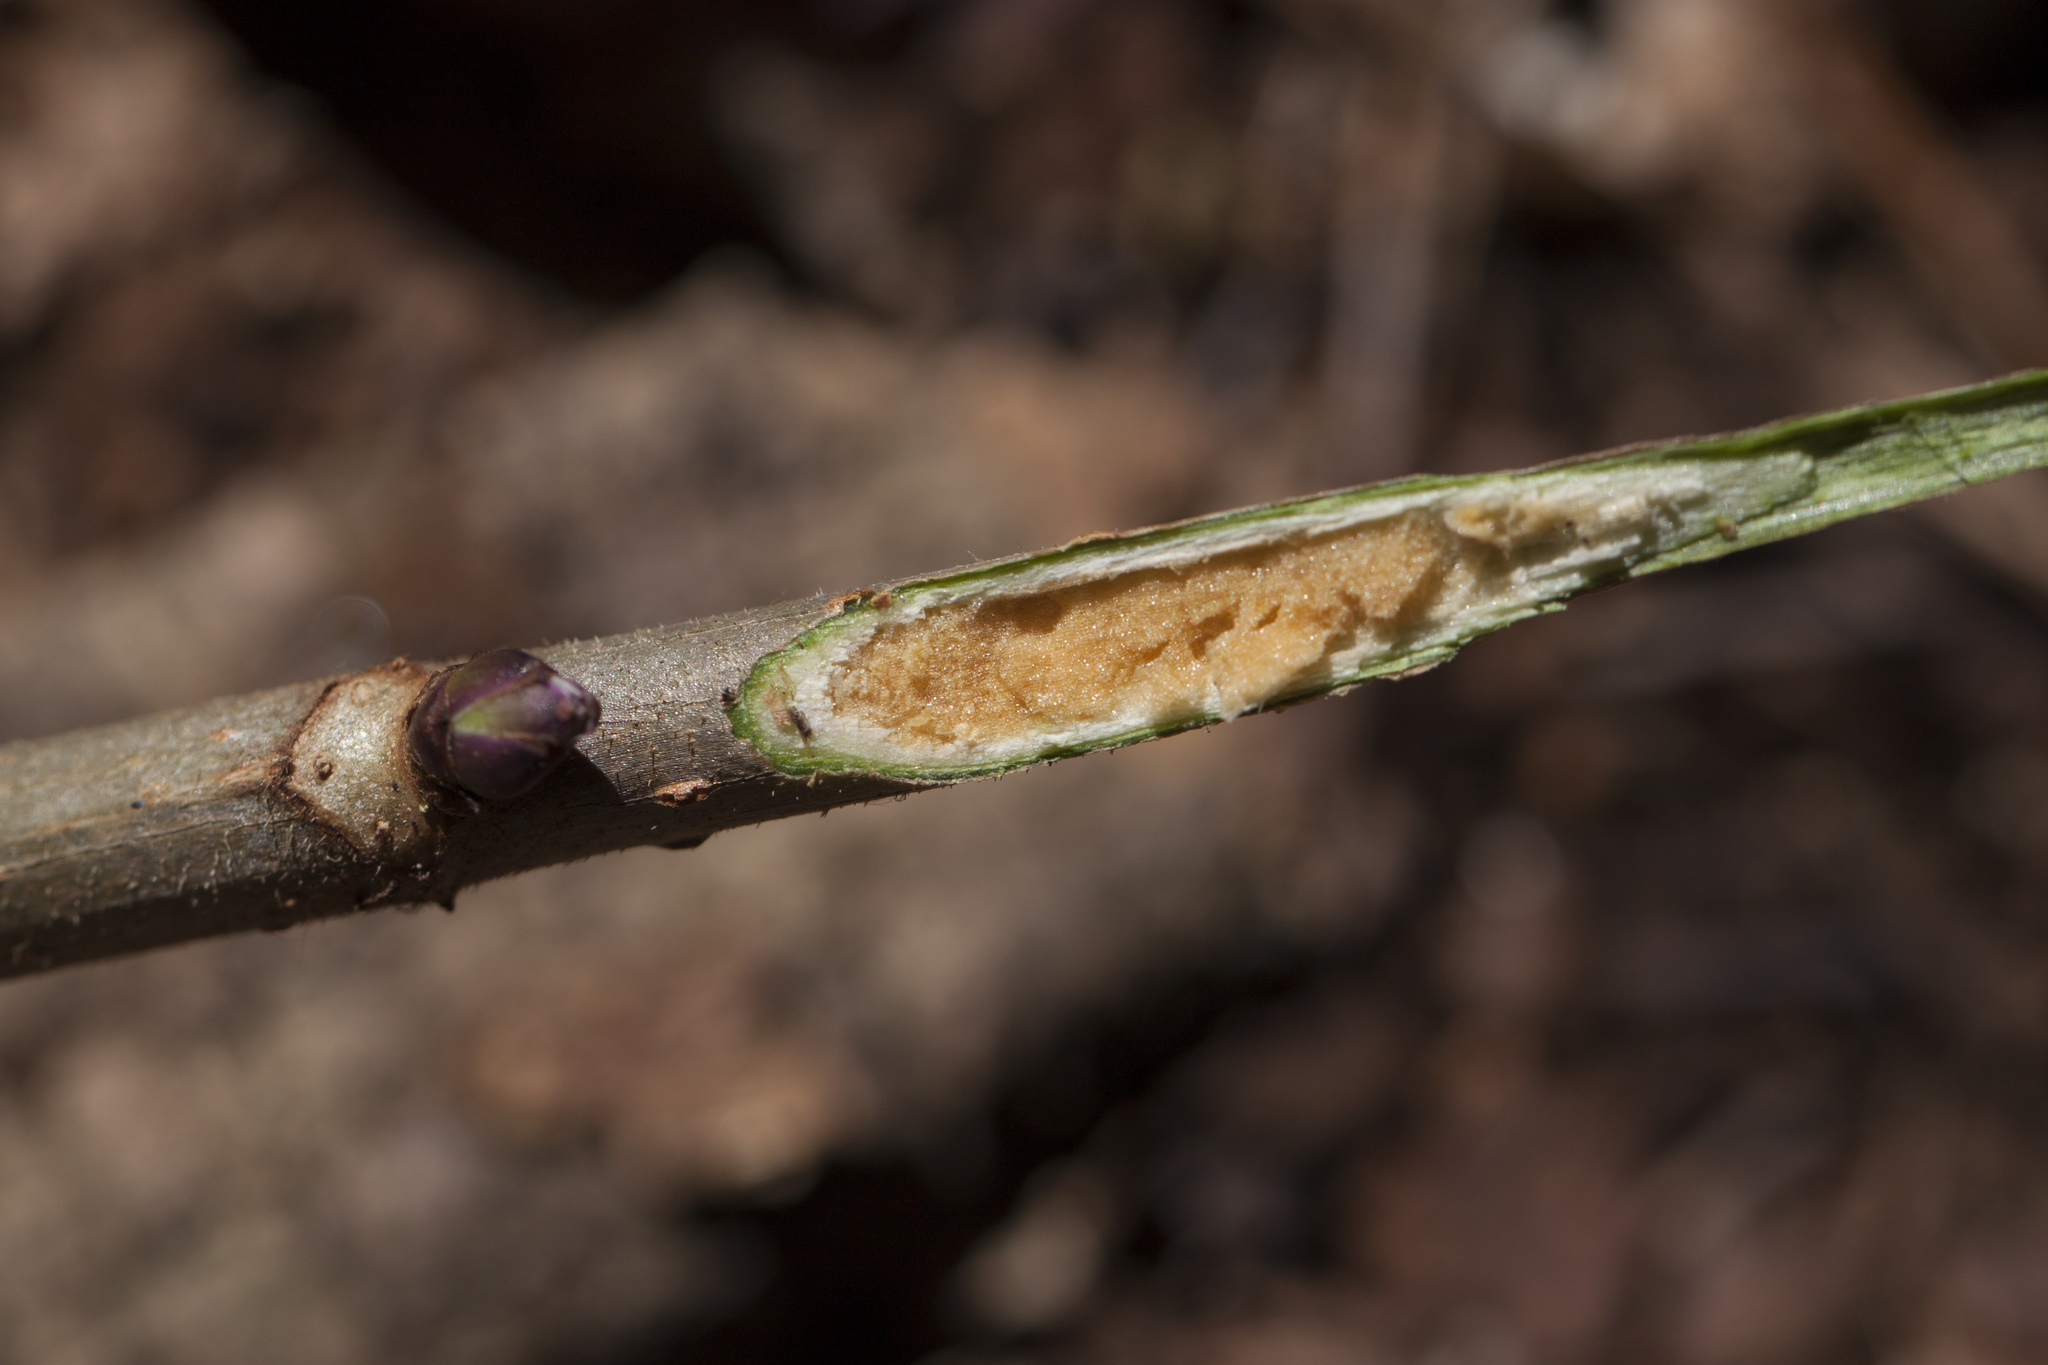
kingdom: Plantae
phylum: Tracheophyta
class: Magnoliopsida
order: Dipsacales
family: Viburnaceae
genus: Sambucus
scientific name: Sambucus racemosa
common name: Red-berried elder
